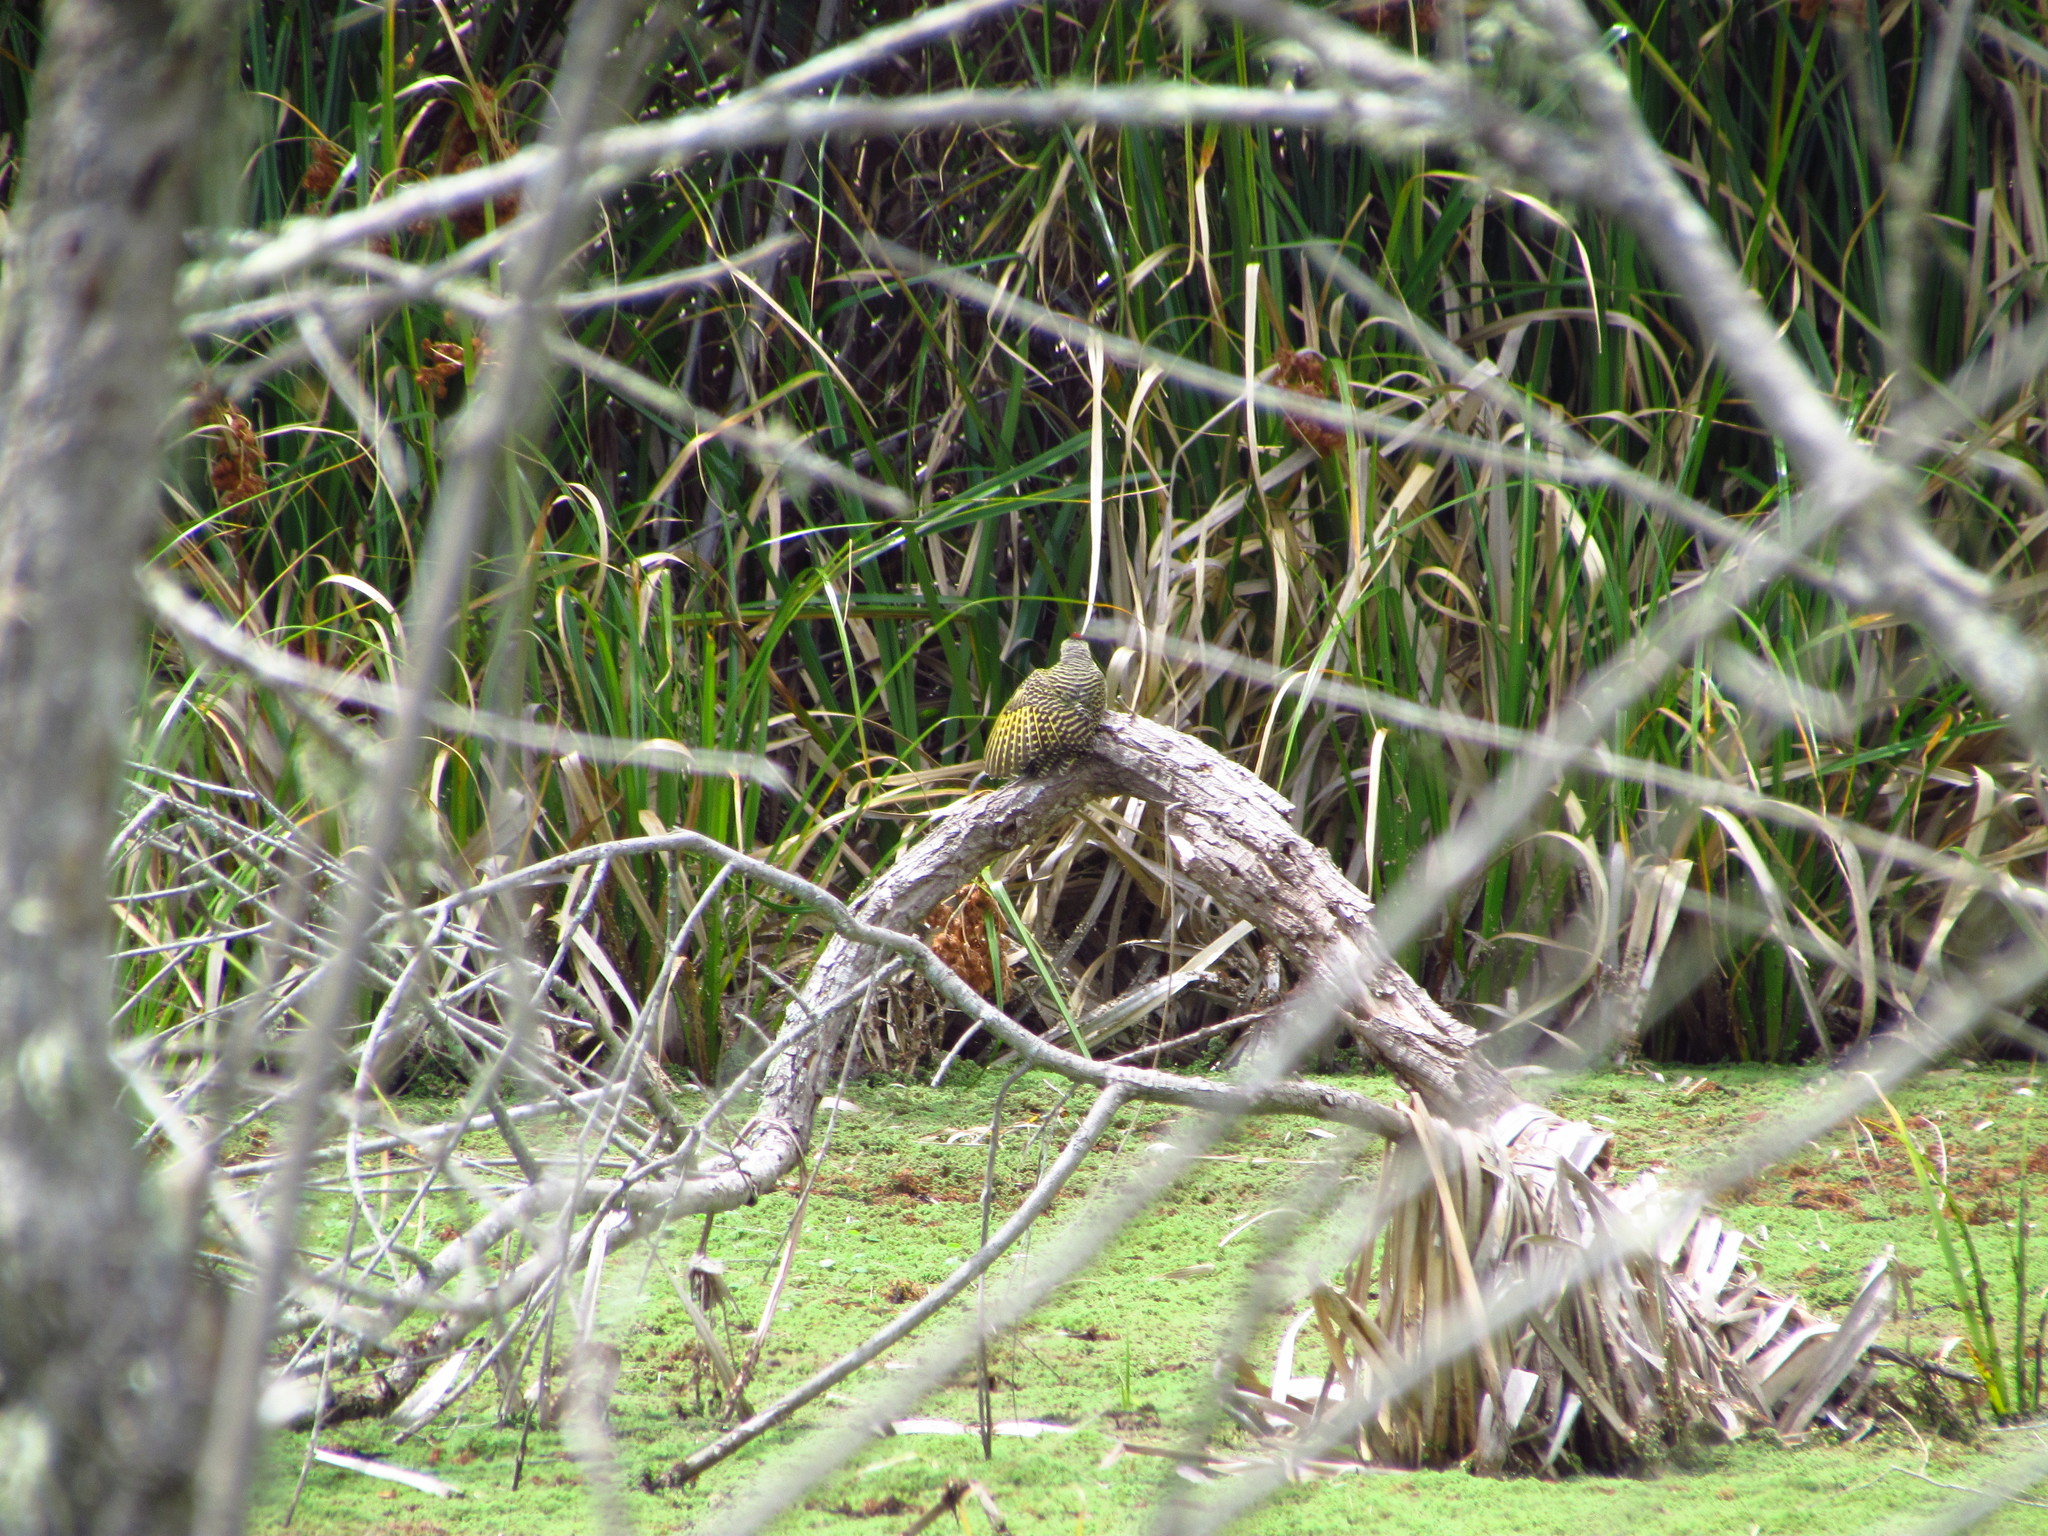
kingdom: Animalia
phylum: Chordata
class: Aves
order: Piciformes
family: Picidae
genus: Colaptes
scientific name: Colaptes melanochloros
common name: Green-barred woodpecker
